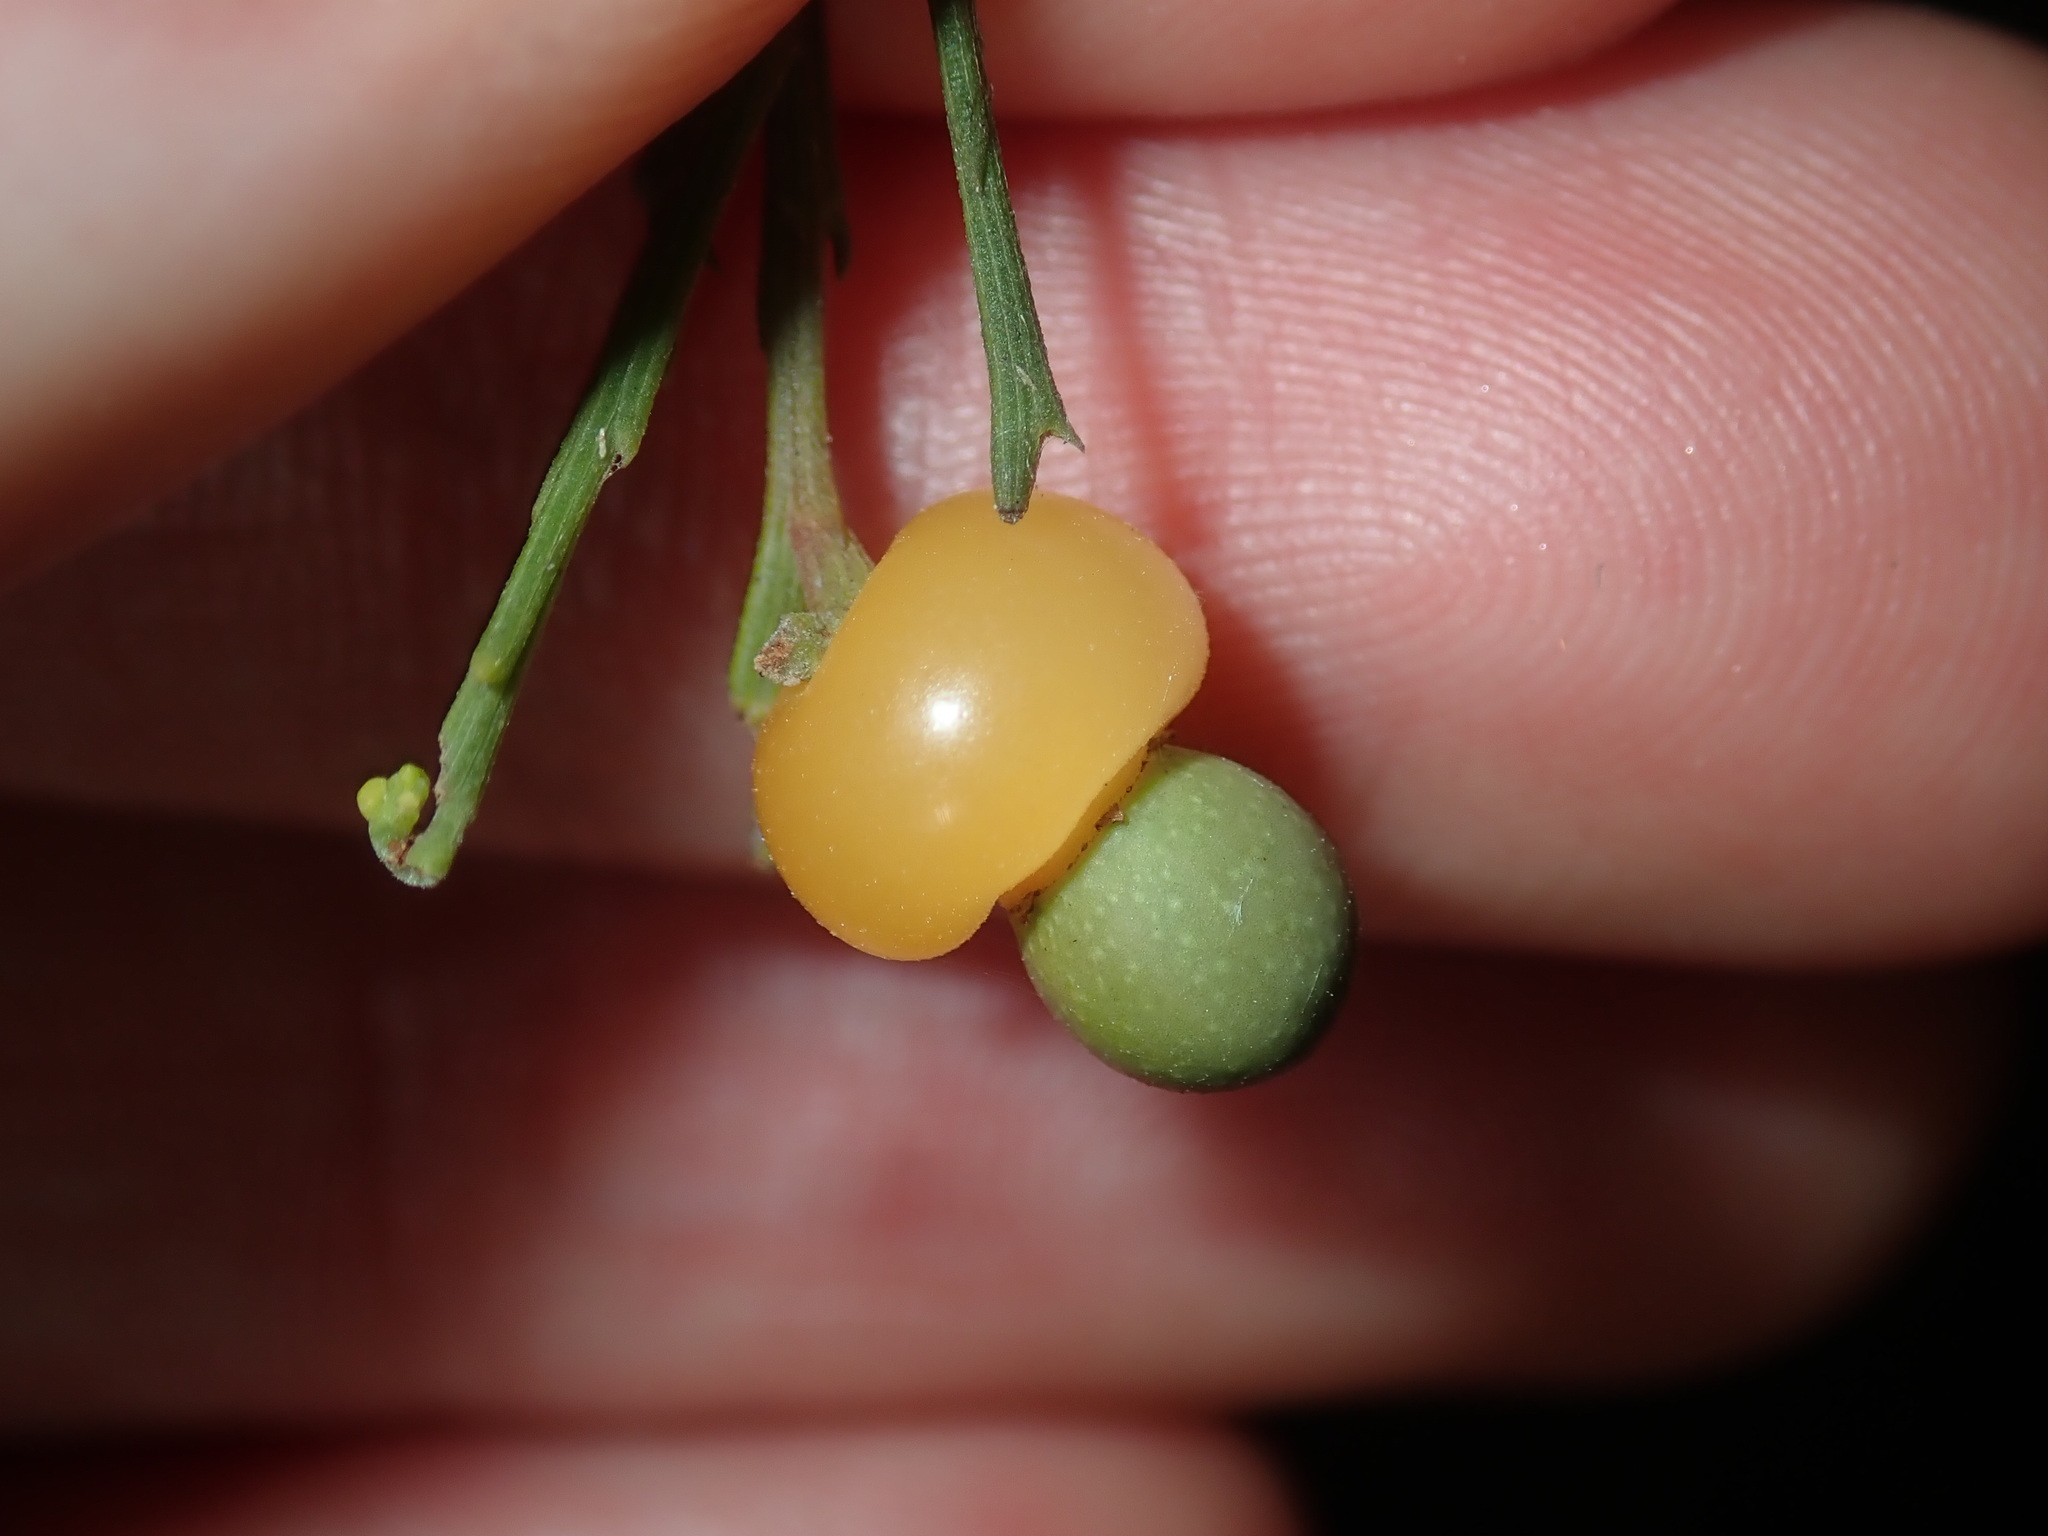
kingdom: Plantae
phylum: Tracheophyta
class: Magnoliopsida
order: Santalales
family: Santalaceae
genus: Exocarpos
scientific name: Exocarpos cupressiformis
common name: Cherry ballart
